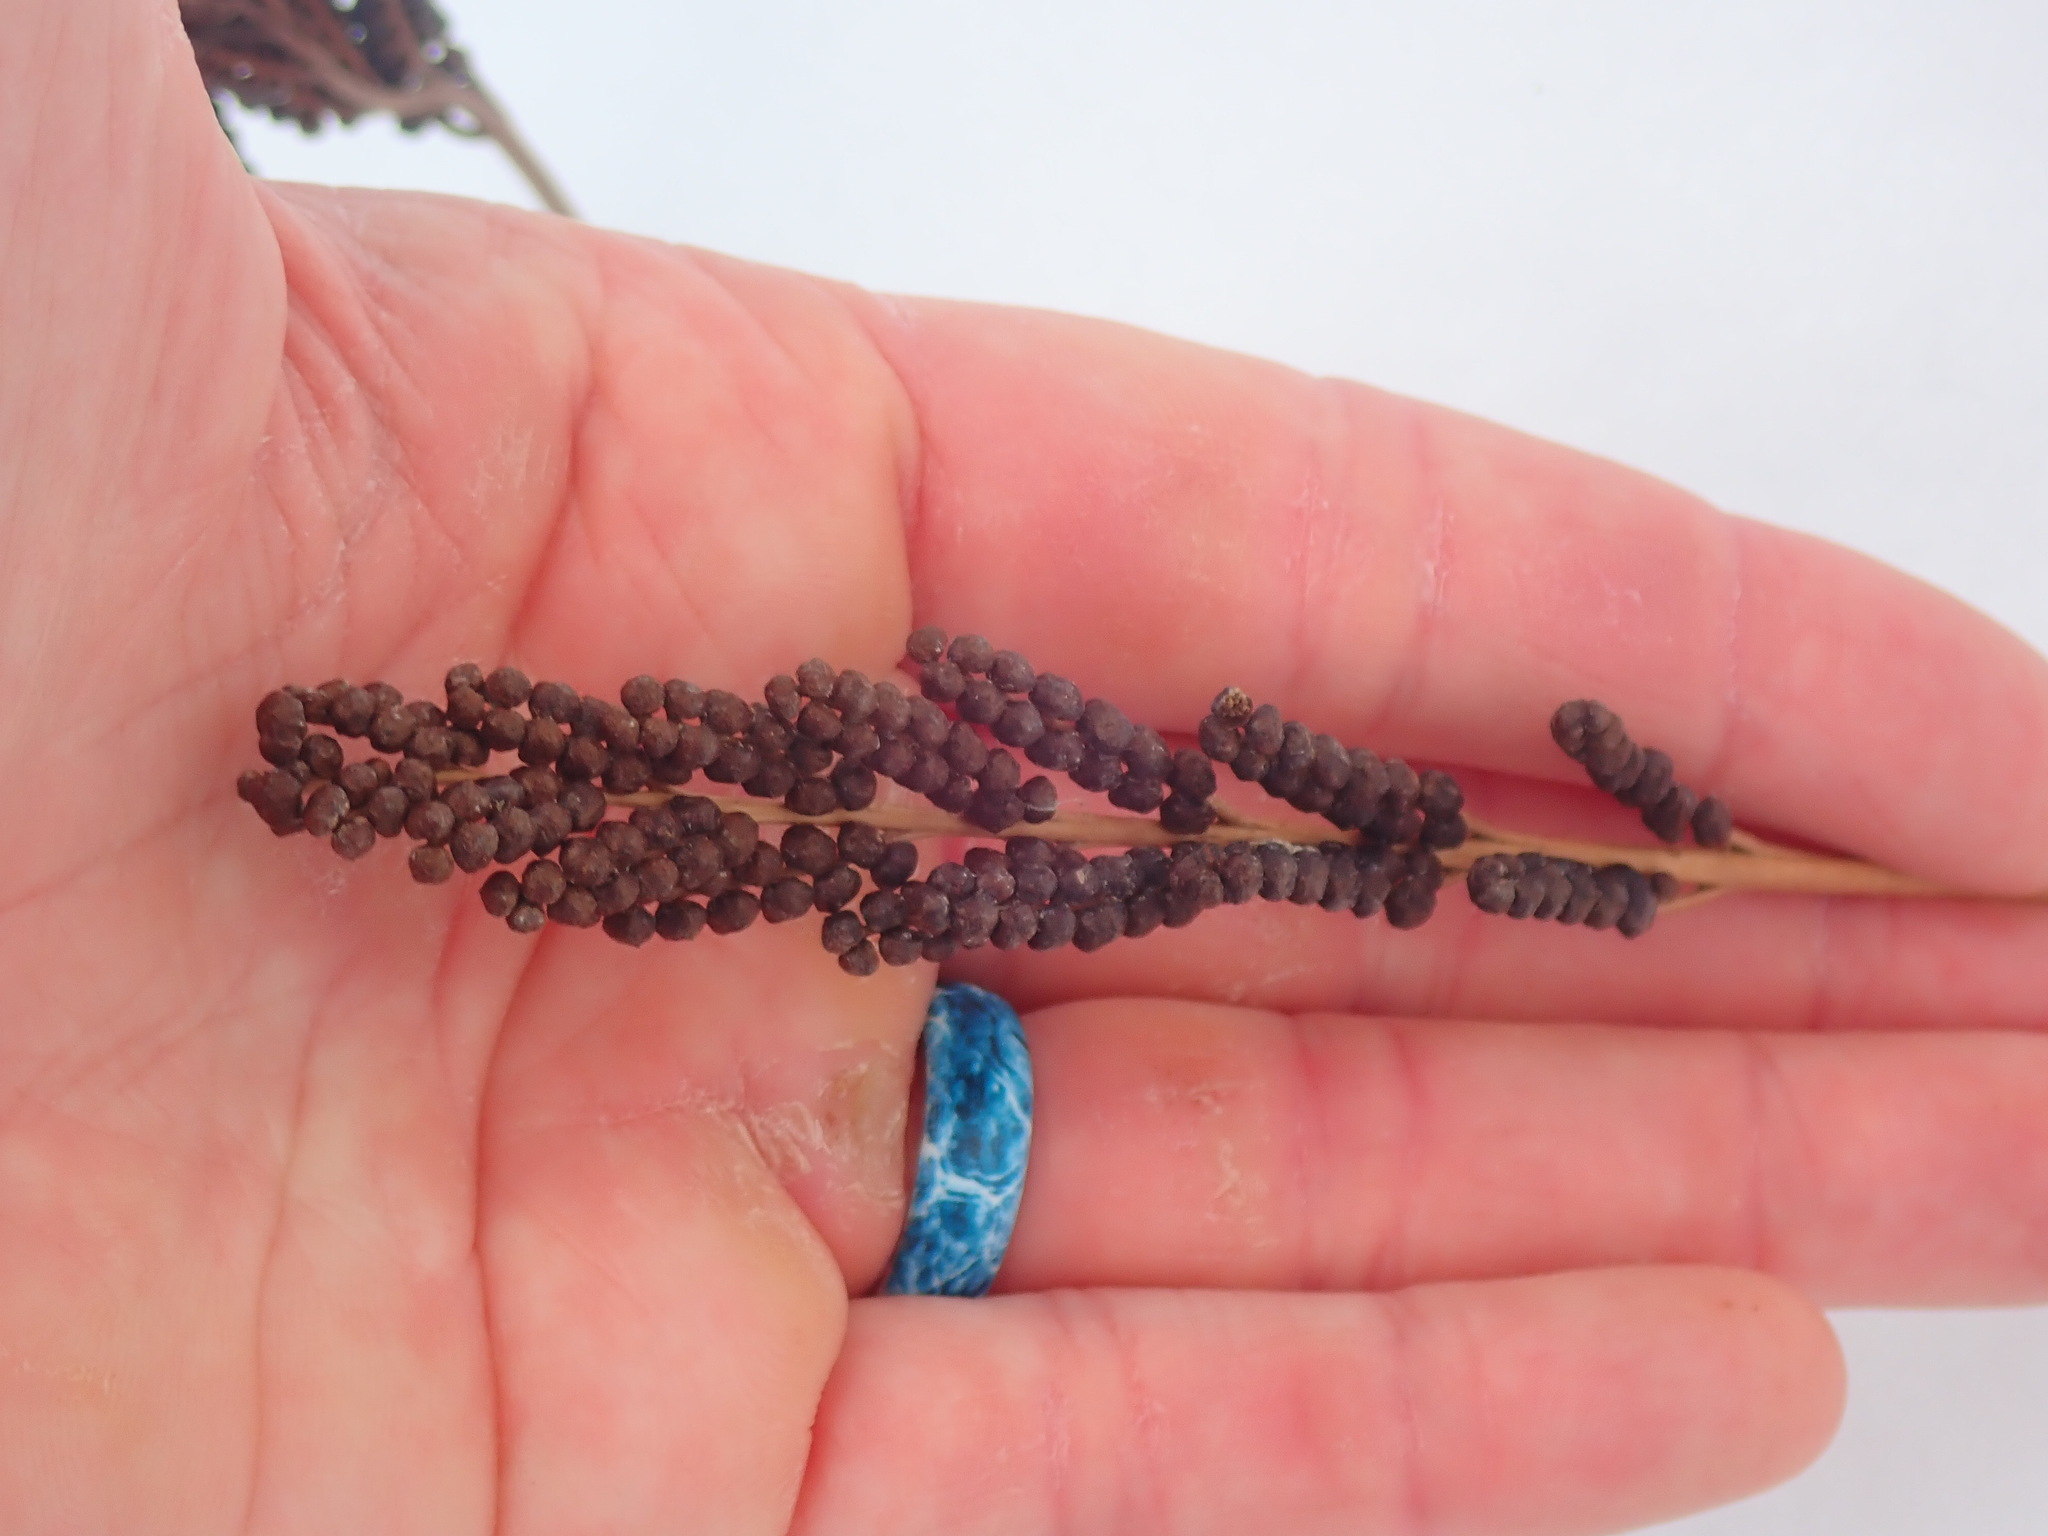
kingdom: Plantae
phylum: Tracheophyta
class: Polypodiopsida
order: Polypodiales
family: Onocleaceae
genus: Onoclea
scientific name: Onoclea sensibilis
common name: Sensitive fern
